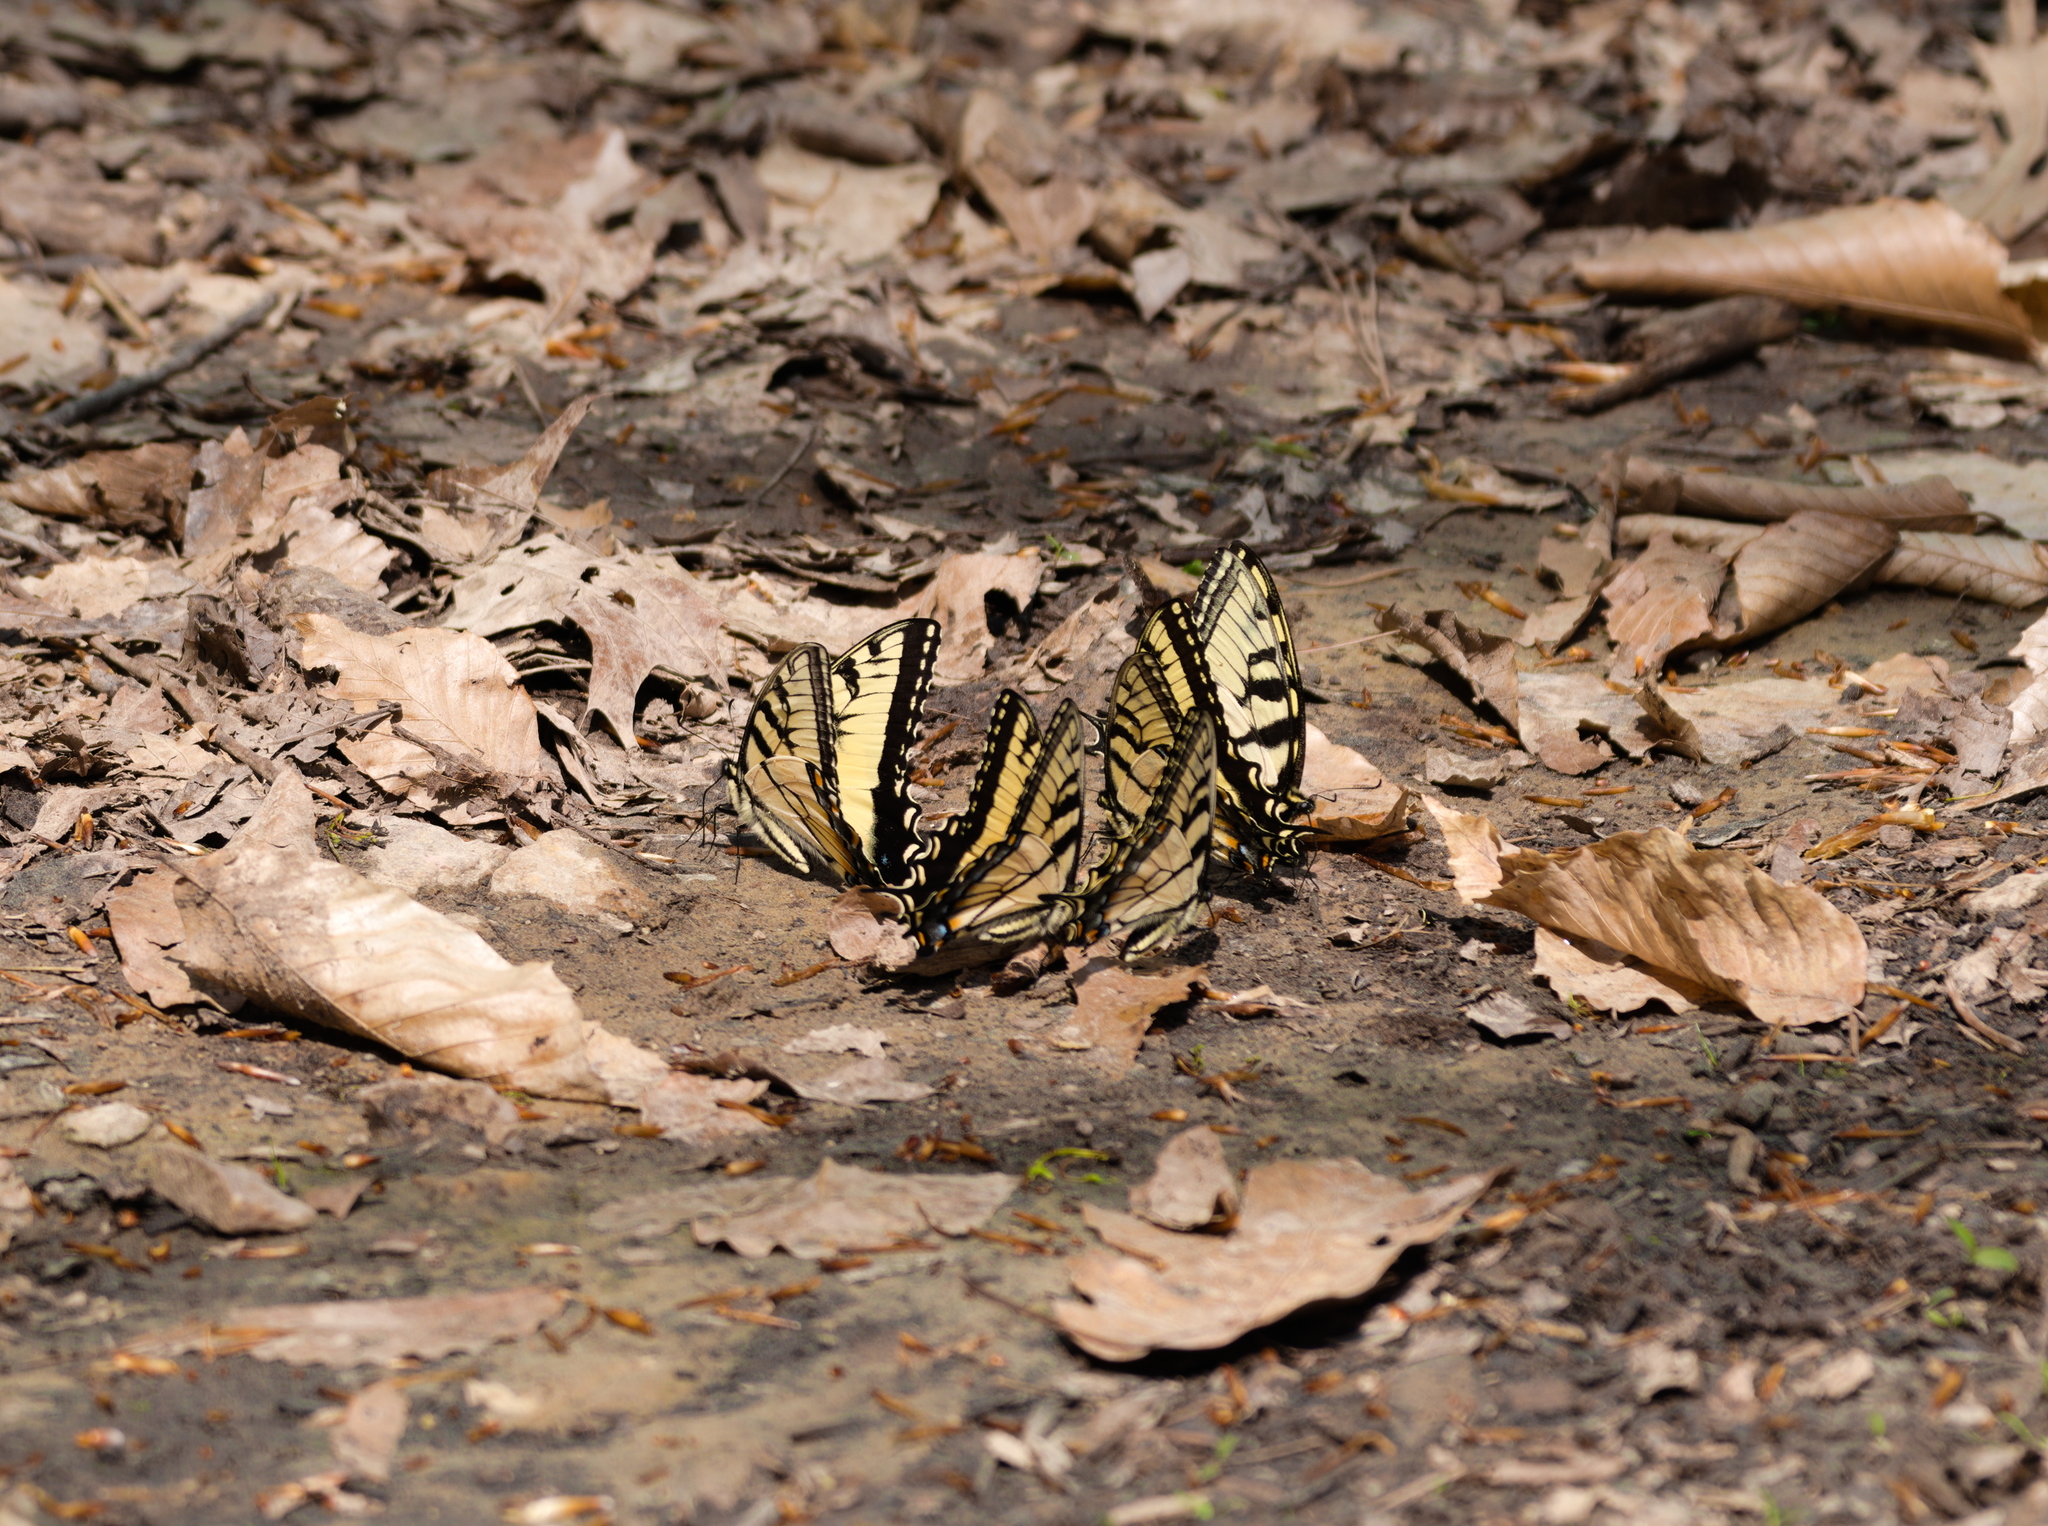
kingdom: Animalia
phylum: Arthropoda
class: Insecta
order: Lepidoptera
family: Papilionidae
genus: Papilio
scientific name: Papilio glaucus
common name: Tiger swallowtail
